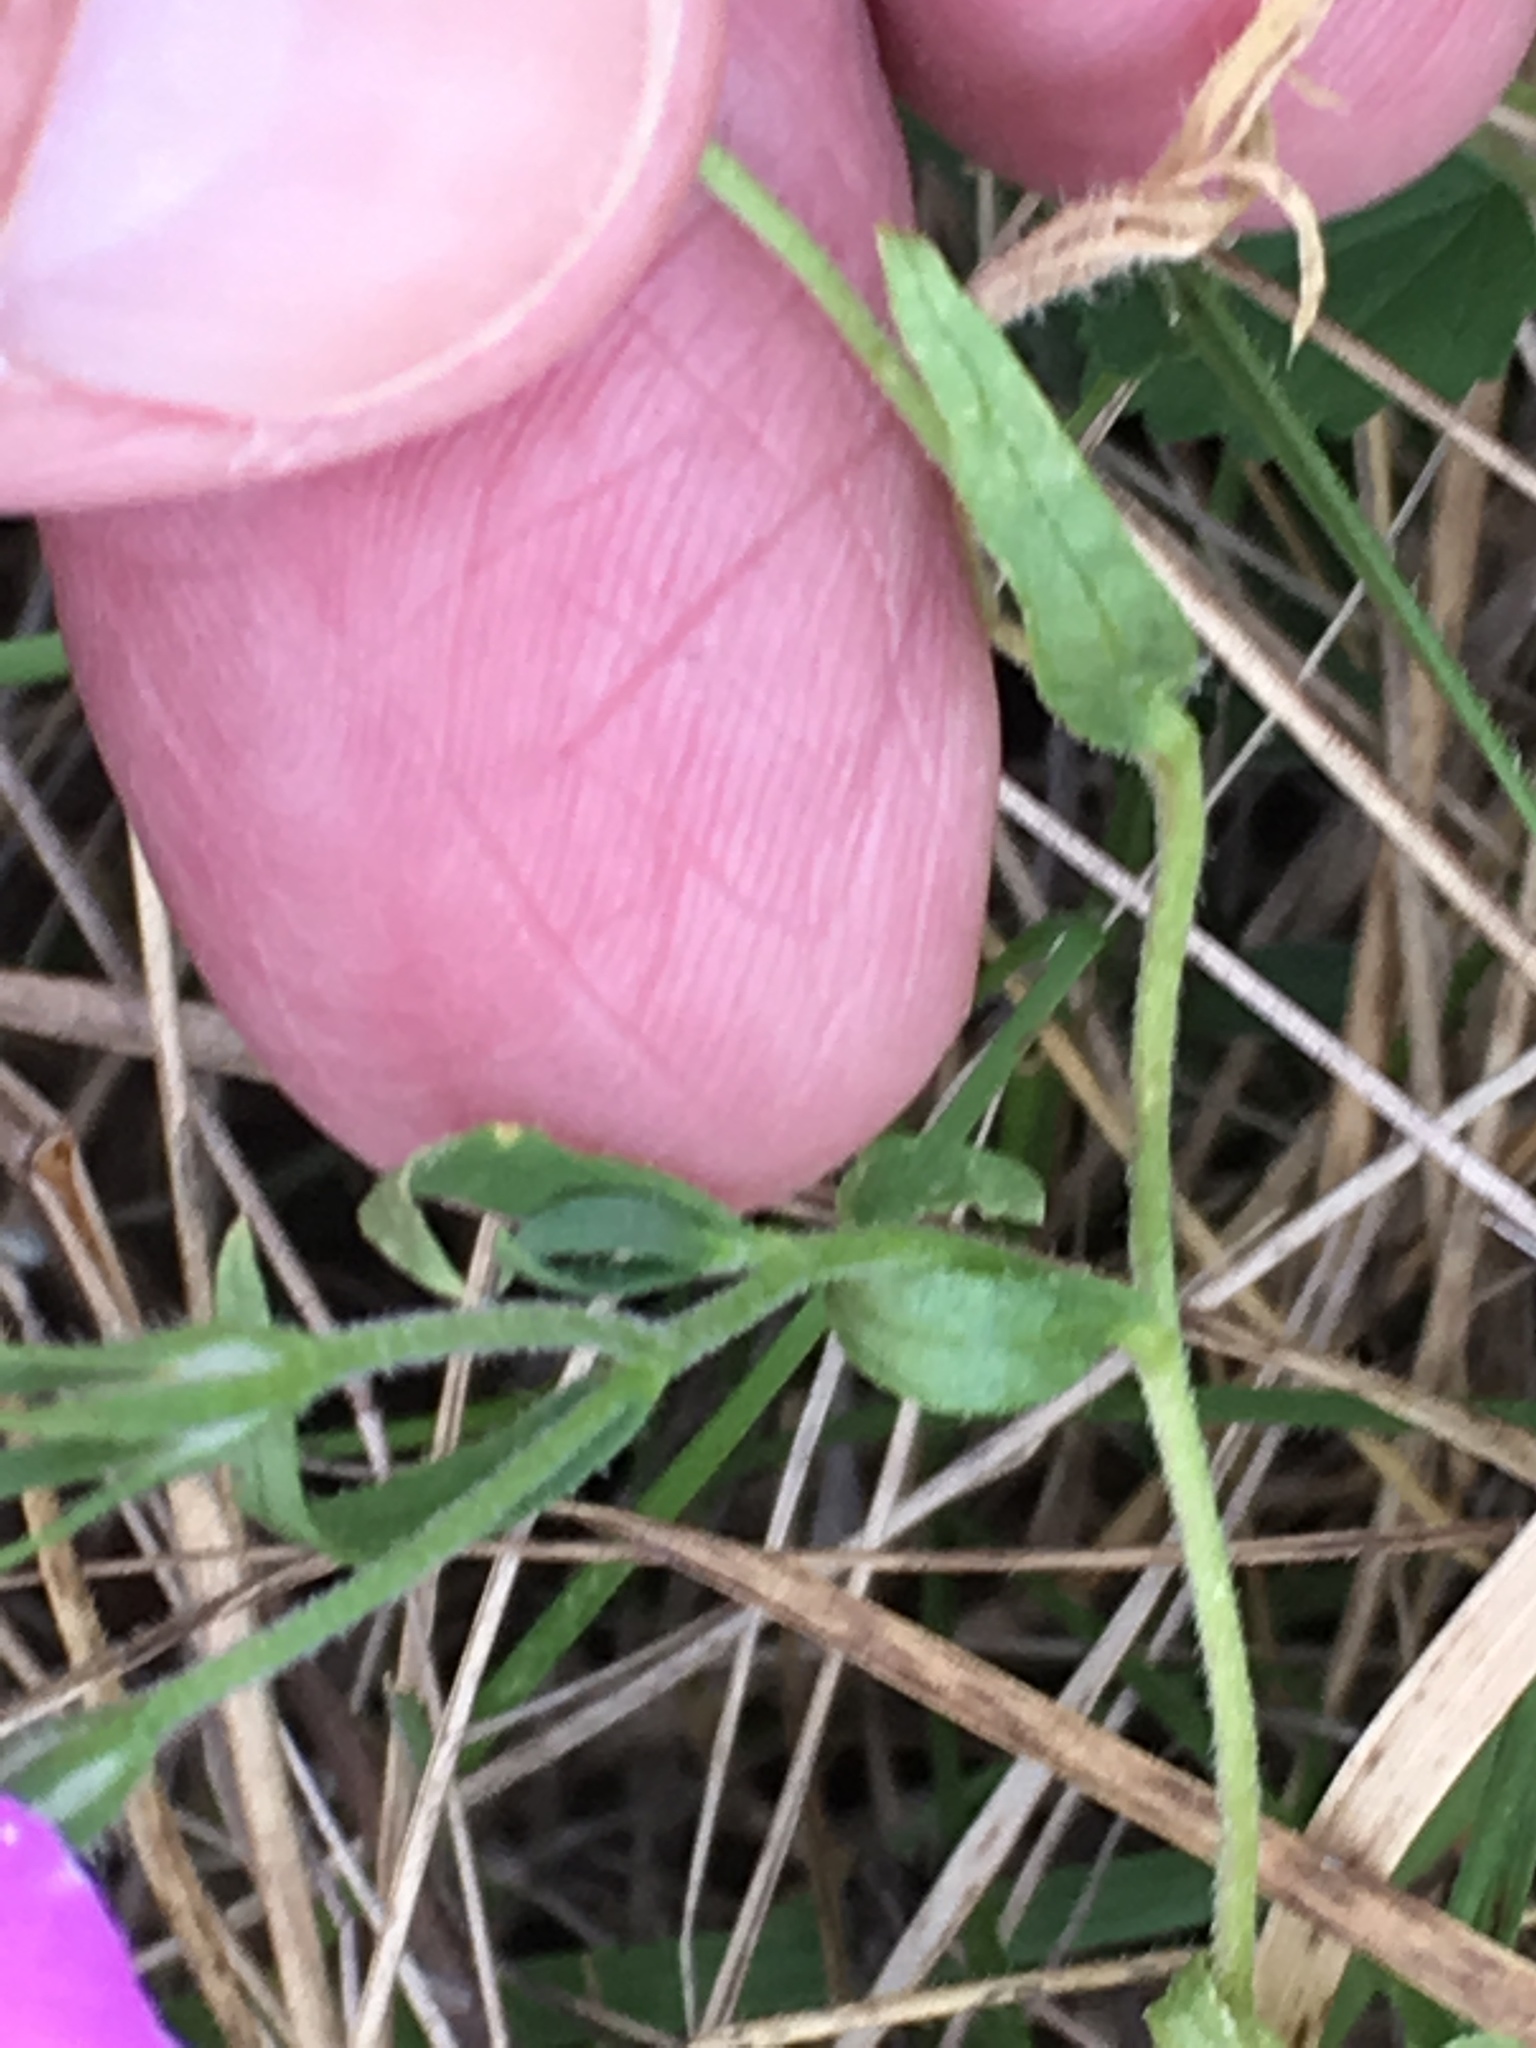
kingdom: Plantae
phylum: Tracheophyta
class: Magnoliopsida
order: Ericales
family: Polemoniaceae
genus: Phlox
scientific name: Phlox roemeriana
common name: Roemer's phlox
